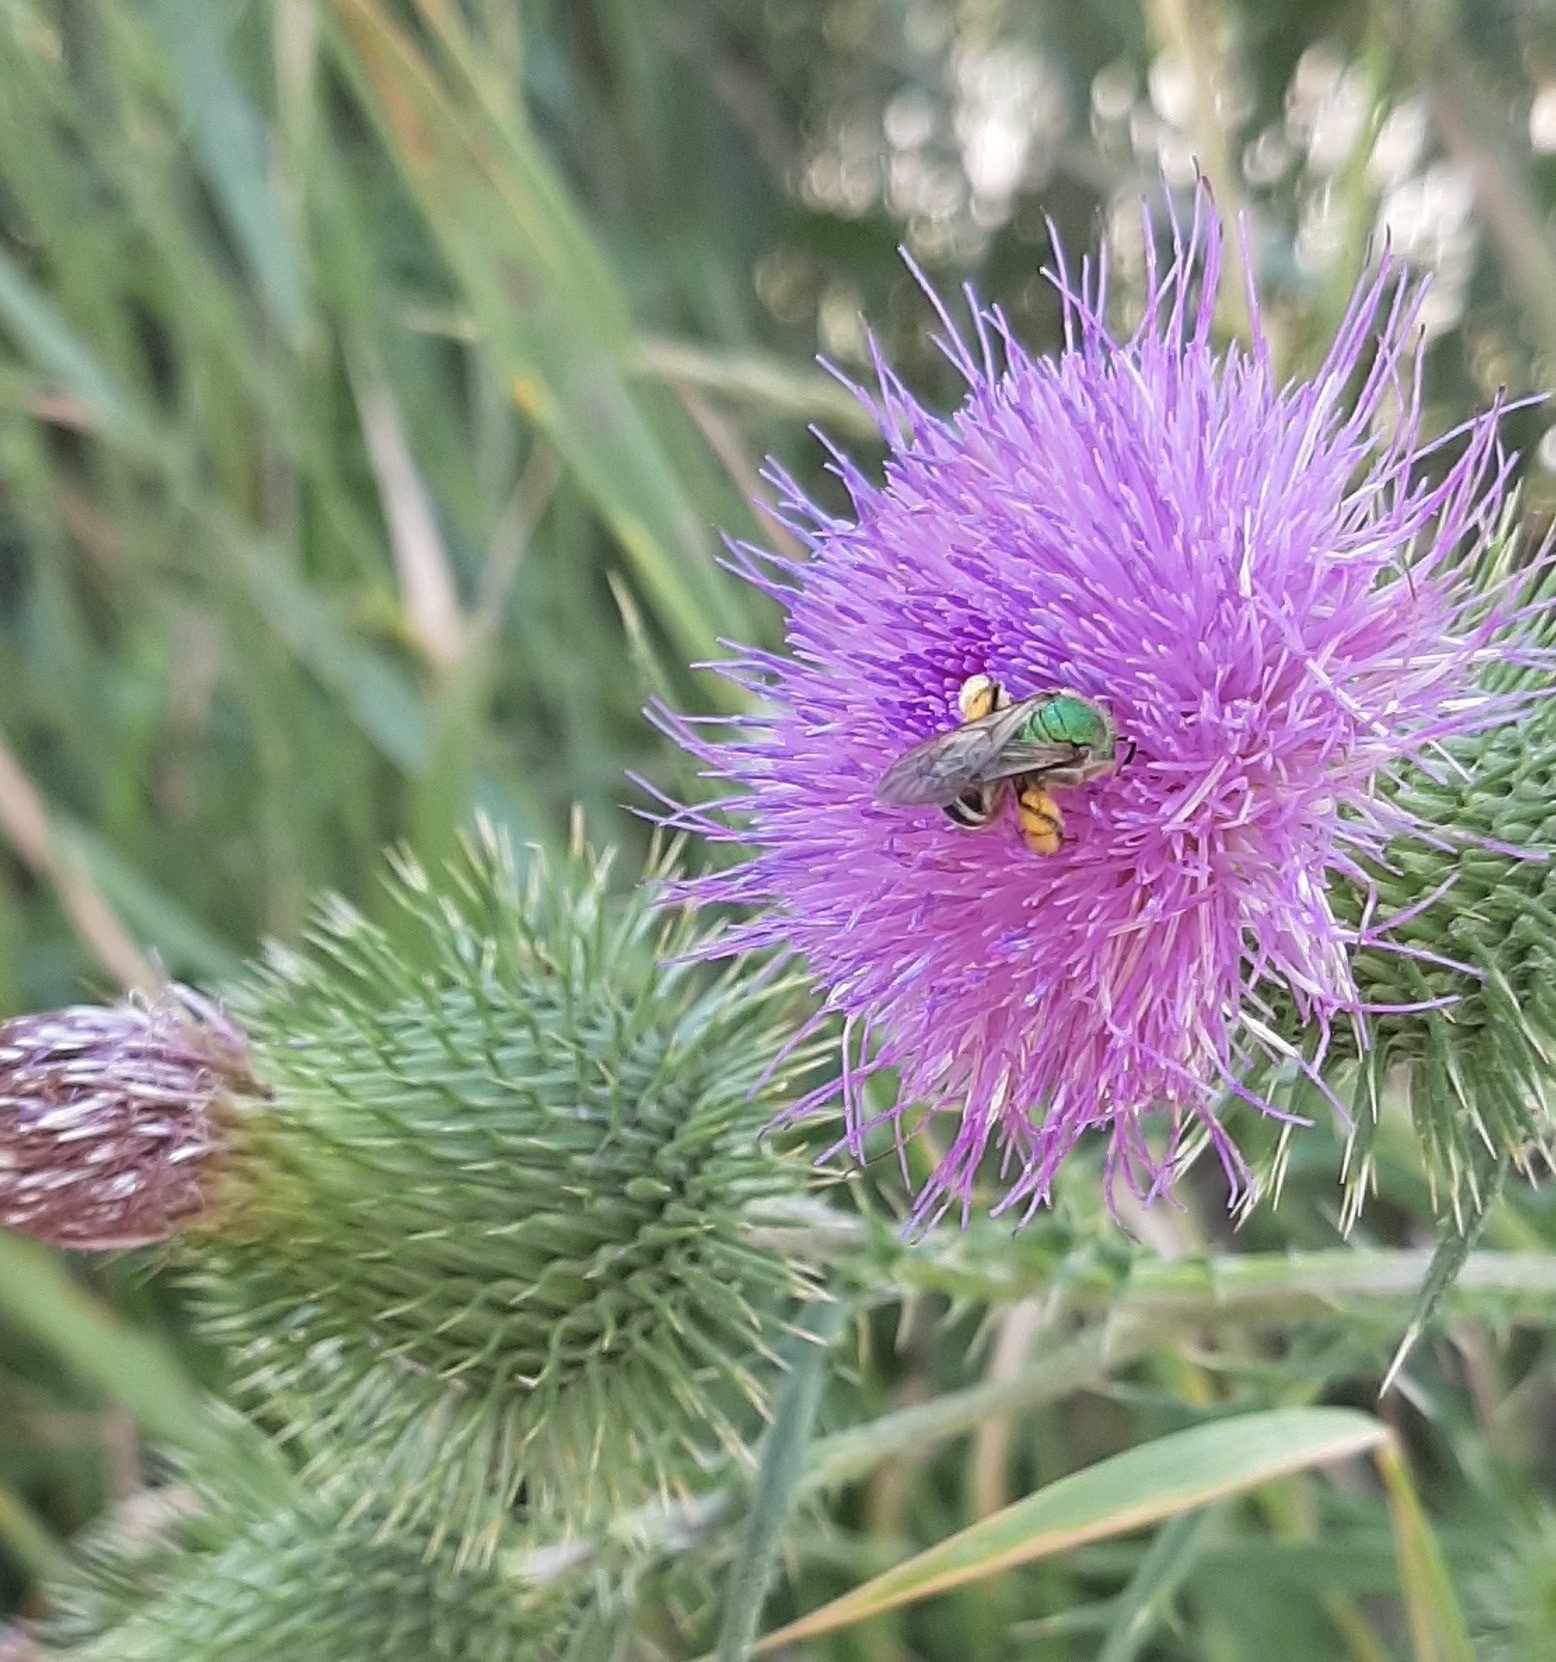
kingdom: Animalia
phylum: Arthropoda
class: Insecta
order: Hymenoptera
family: Halictidae
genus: Agapostemon
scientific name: Agapostemon virescens
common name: Bicolored striped sweat bee
